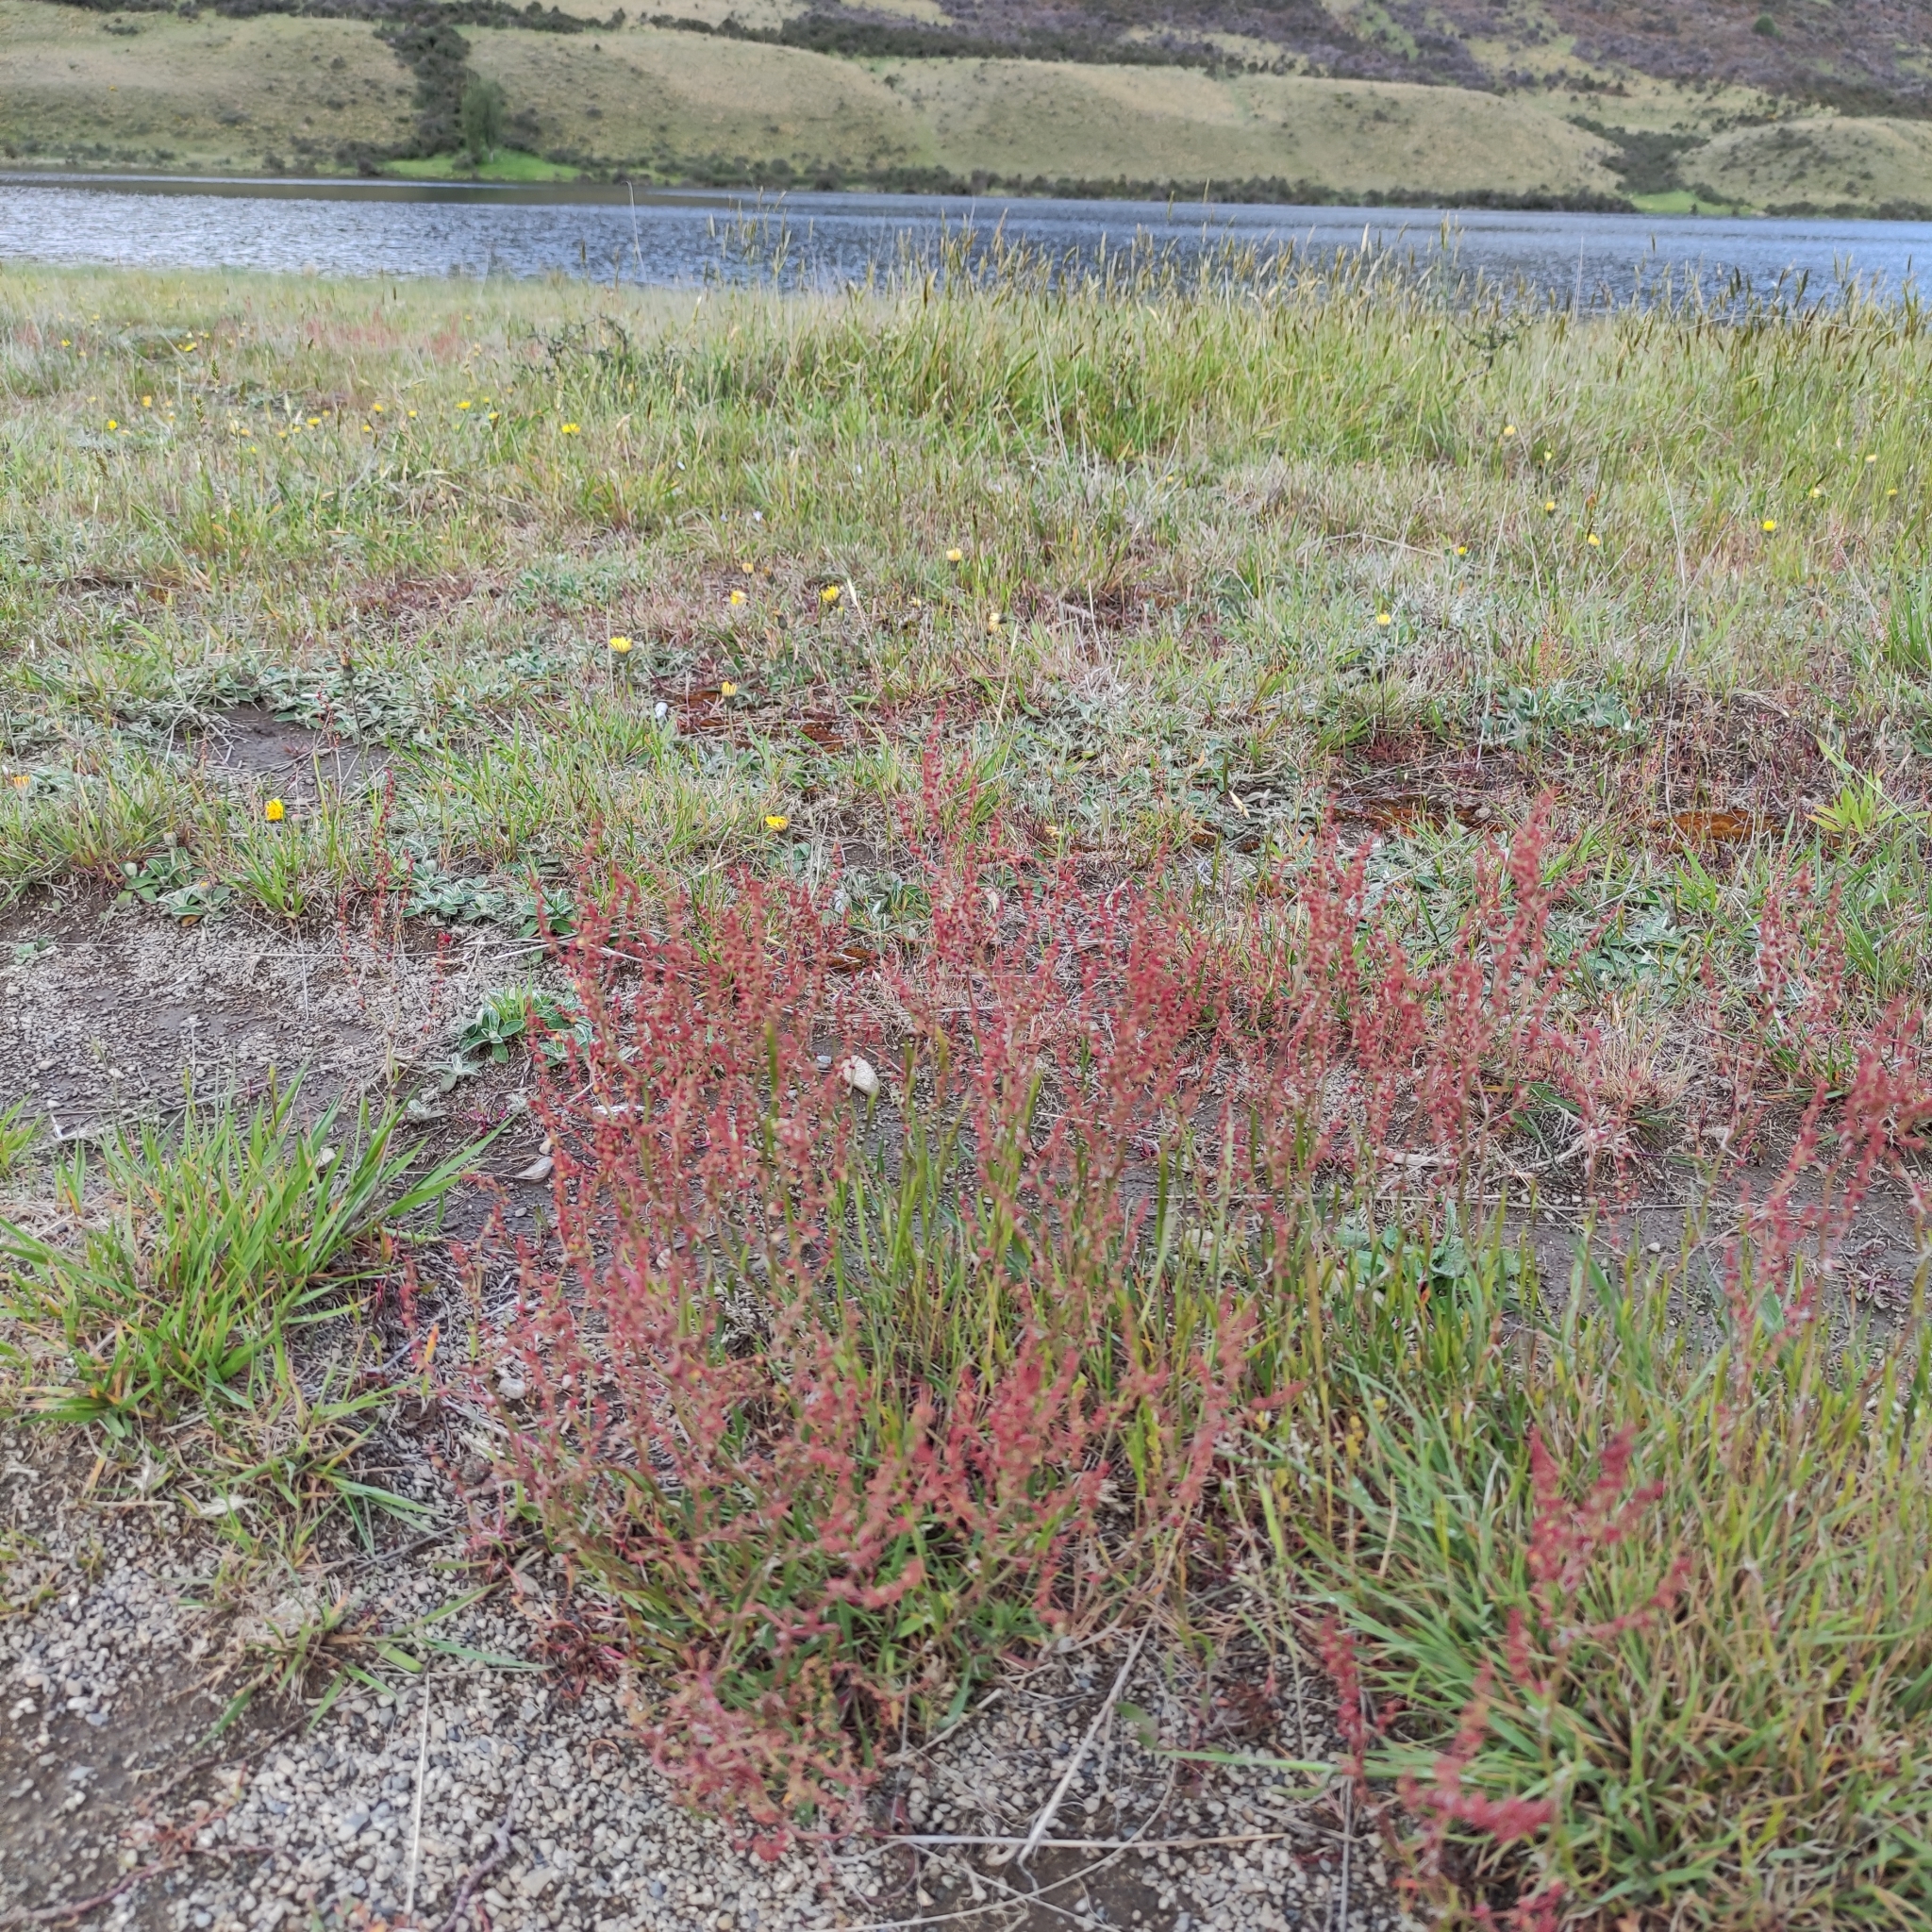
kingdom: Plantae
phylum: Tracheophyta
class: Magnoliopsida
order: Caryophyllales
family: Polygonaceae
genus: Rumex
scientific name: Rumex acetosella
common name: Common sheep sorrel
